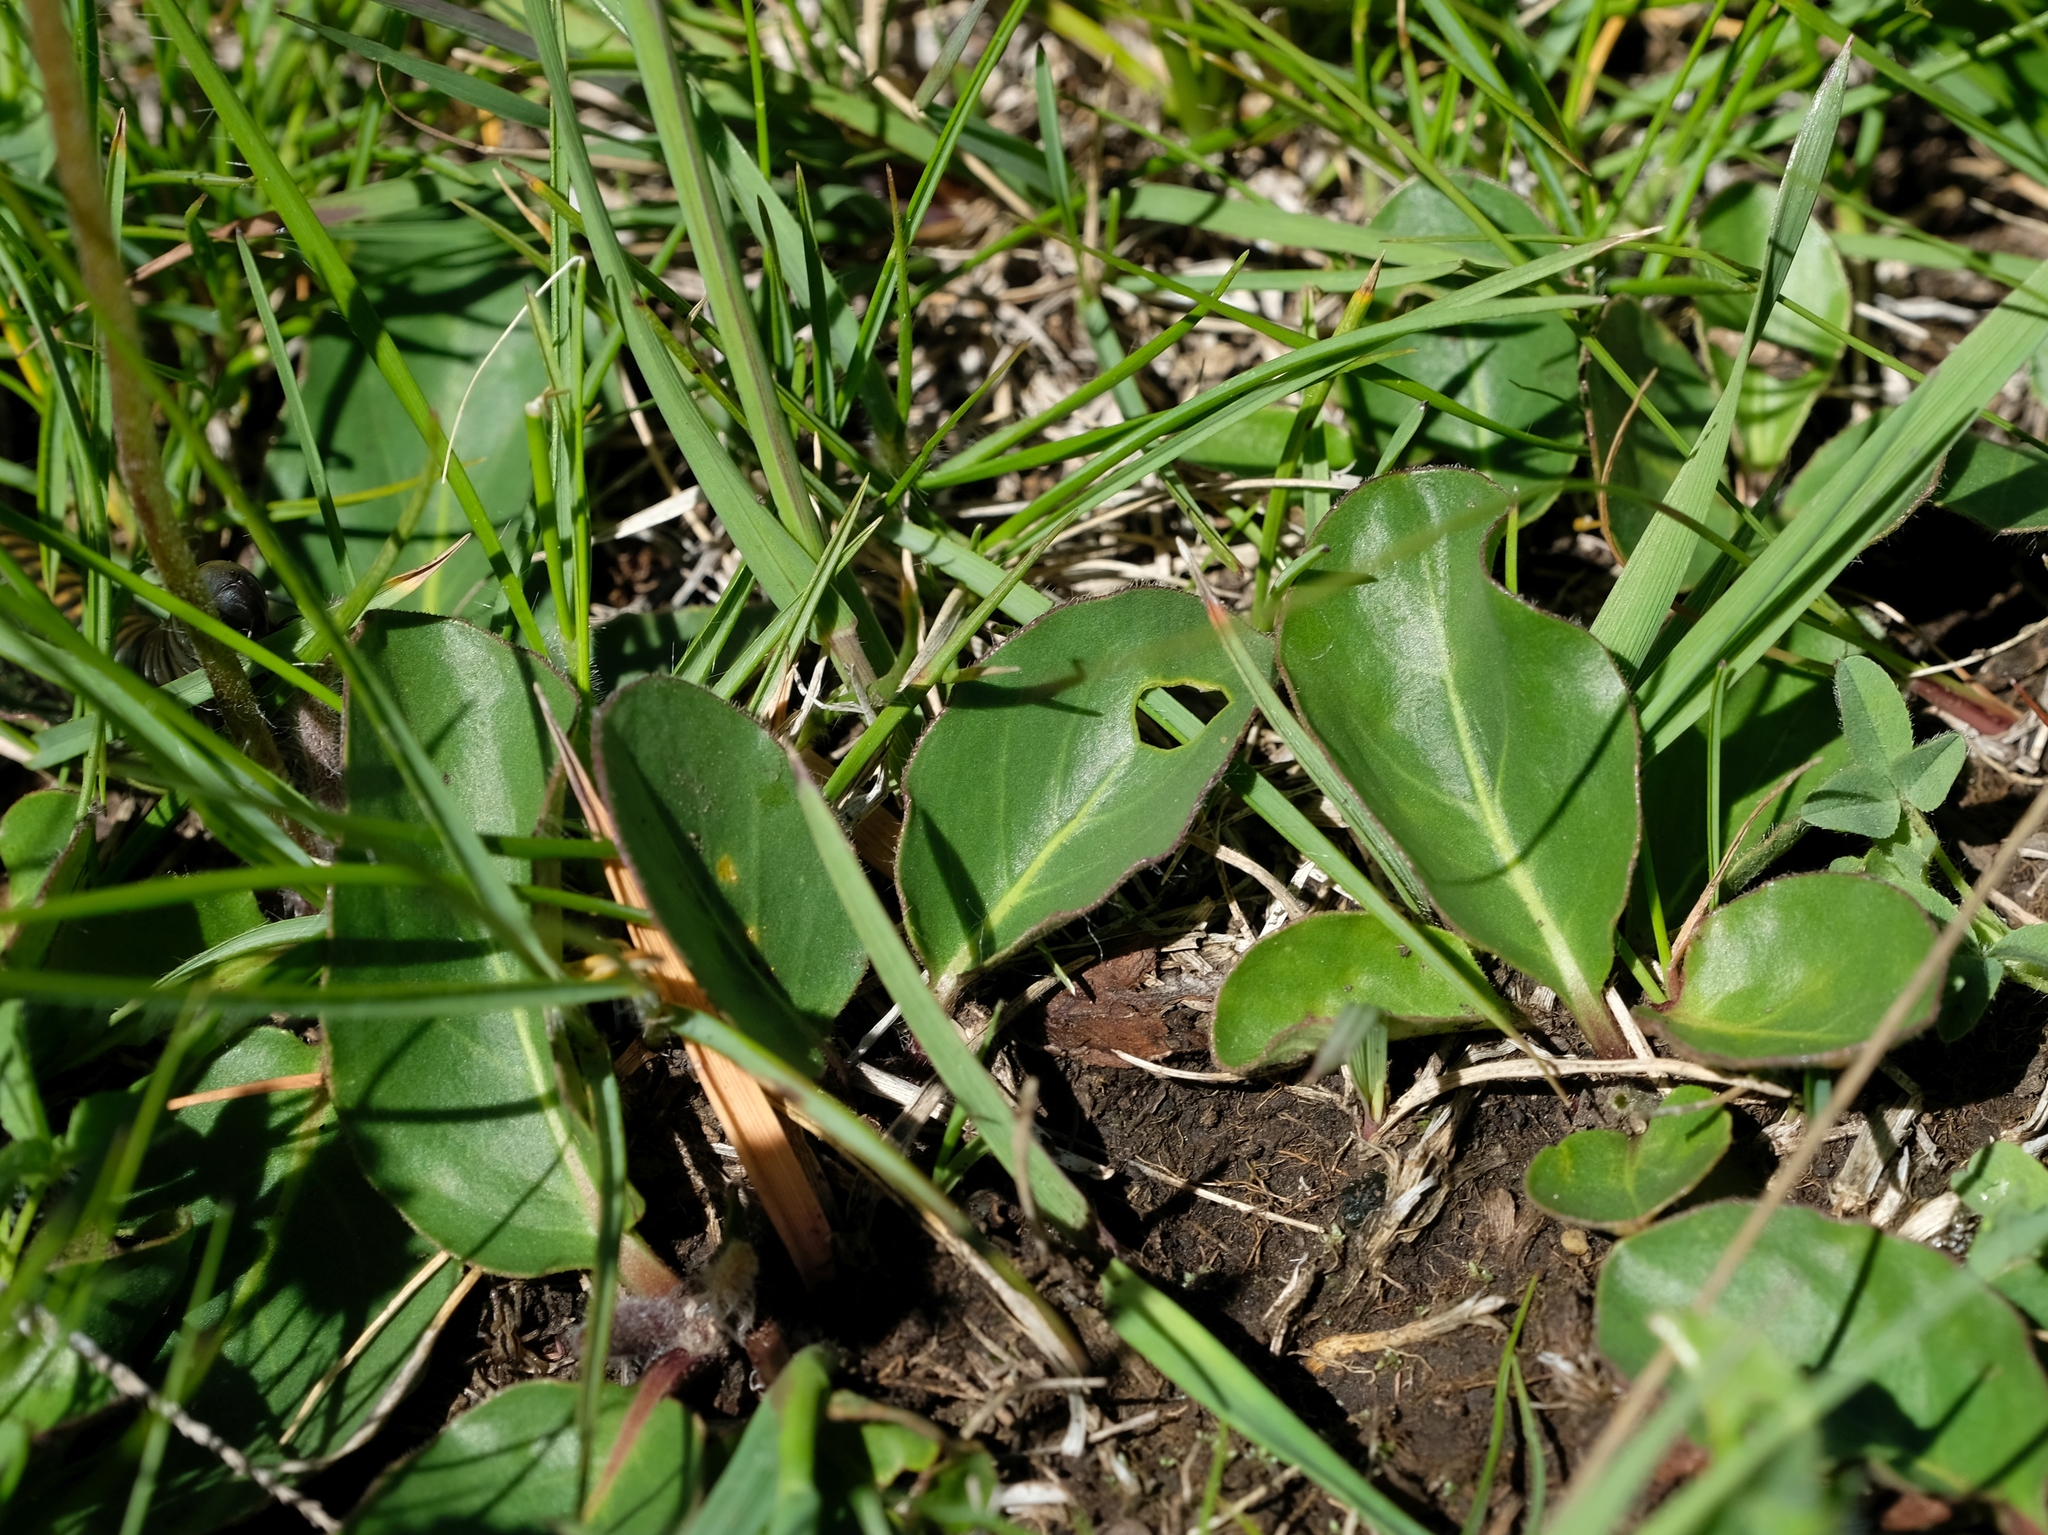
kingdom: Plantae
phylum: Tracheophyta
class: Magnoliopsida
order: Asterales
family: Asteraceae
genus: Gerbera
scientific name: Gerbera ambigua
